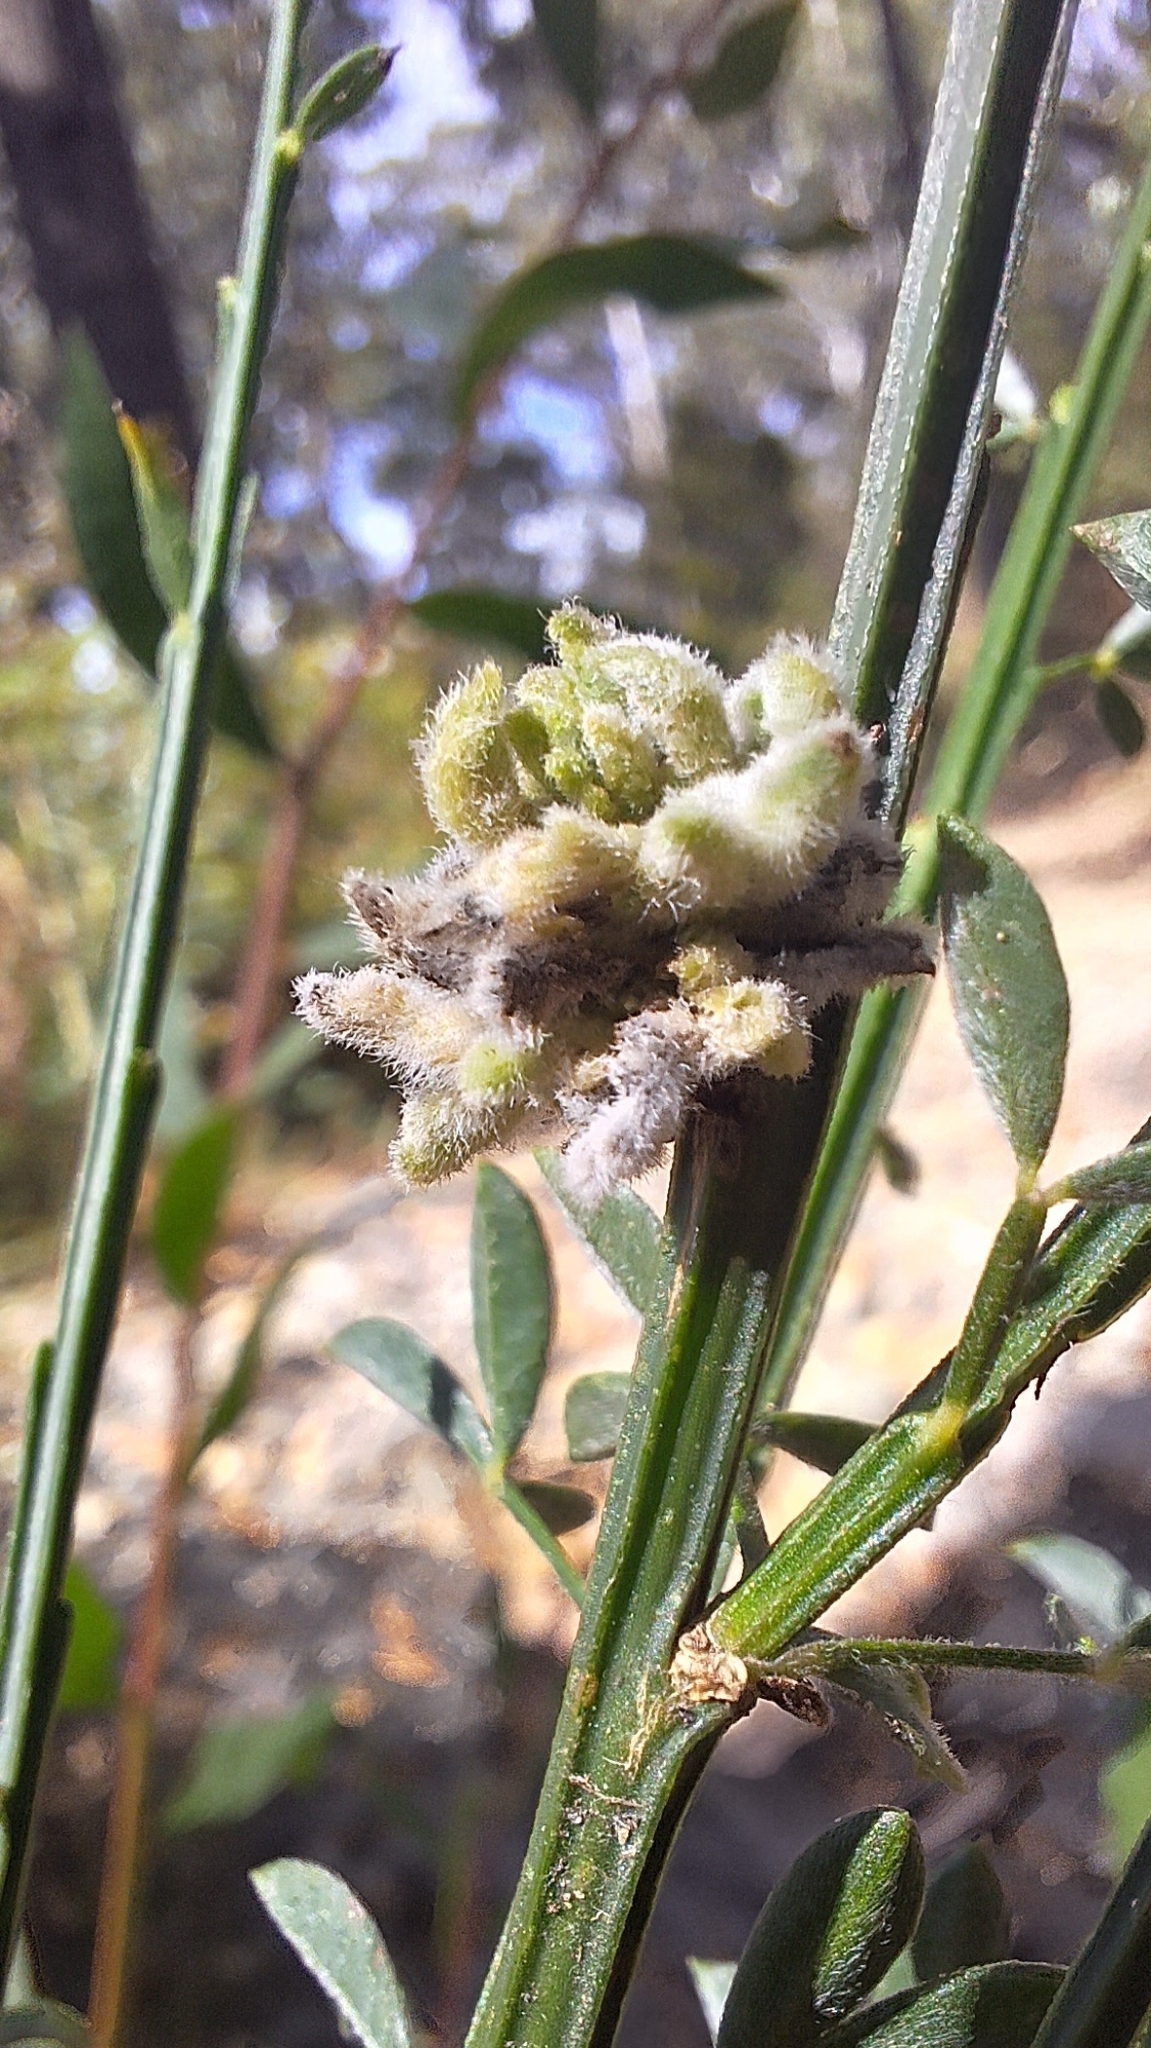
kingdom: Animalia
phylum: Arthropoda
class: Arachnida
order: Trombidiformes
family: Eriophyidae
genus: Aceria
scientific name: Aceria genistae
